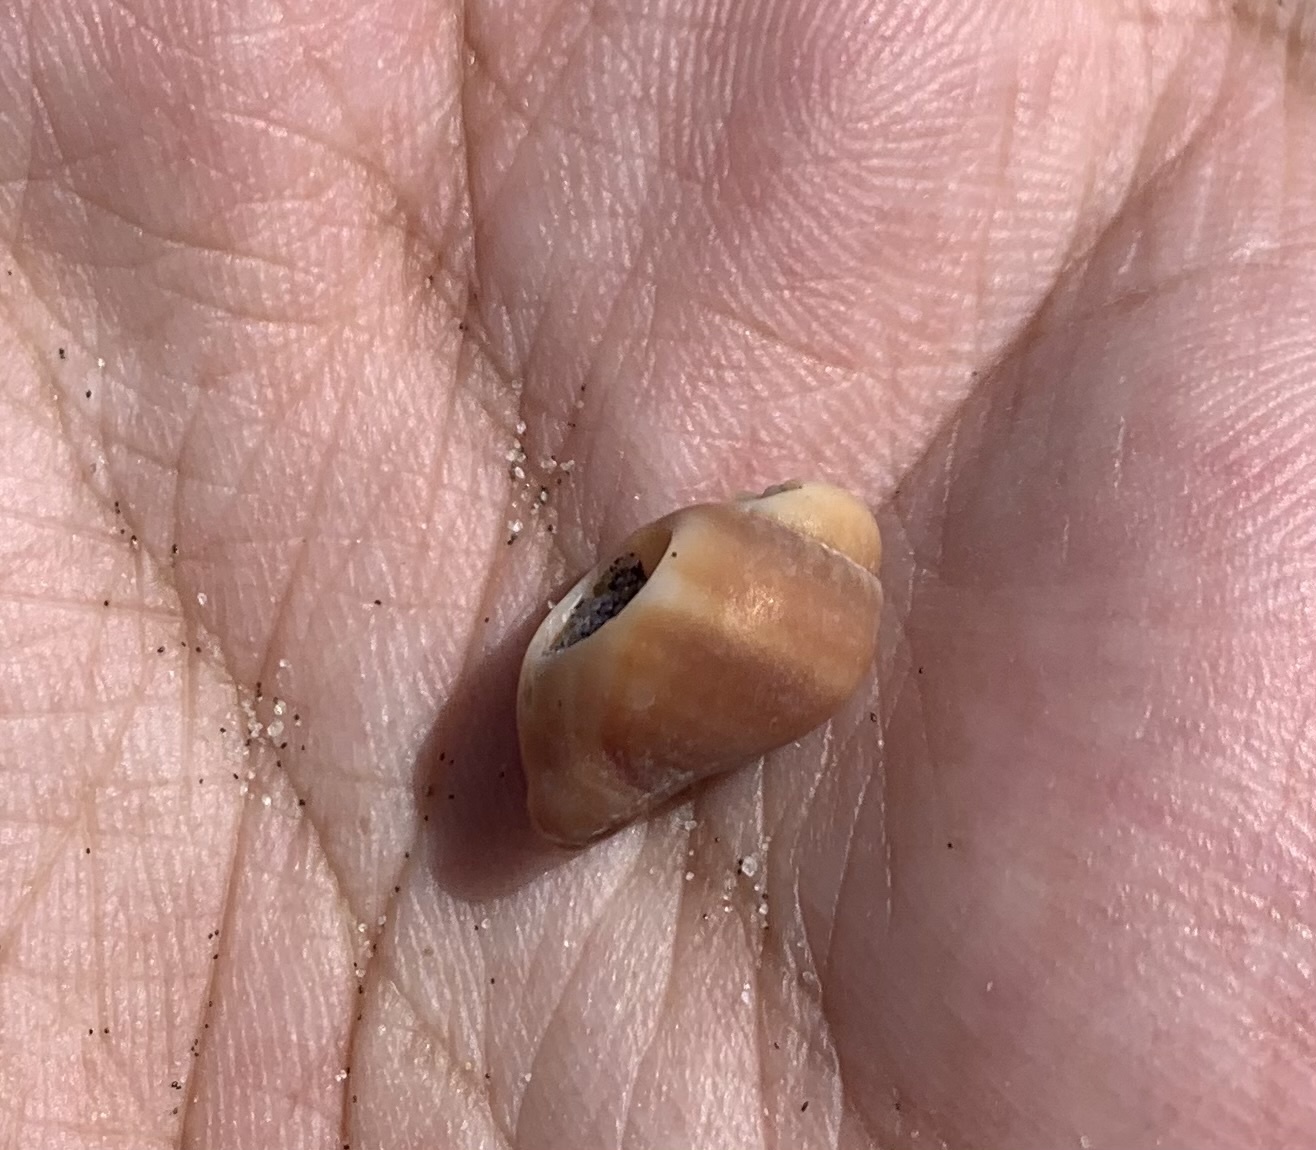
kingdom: Animalia
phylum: Mollusca
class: Gastropoda
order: Neogastropoda
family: Nassariidae
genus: Ilyanassa
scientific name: Ilyanassa obsoleta
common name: Eastern mudsnail
